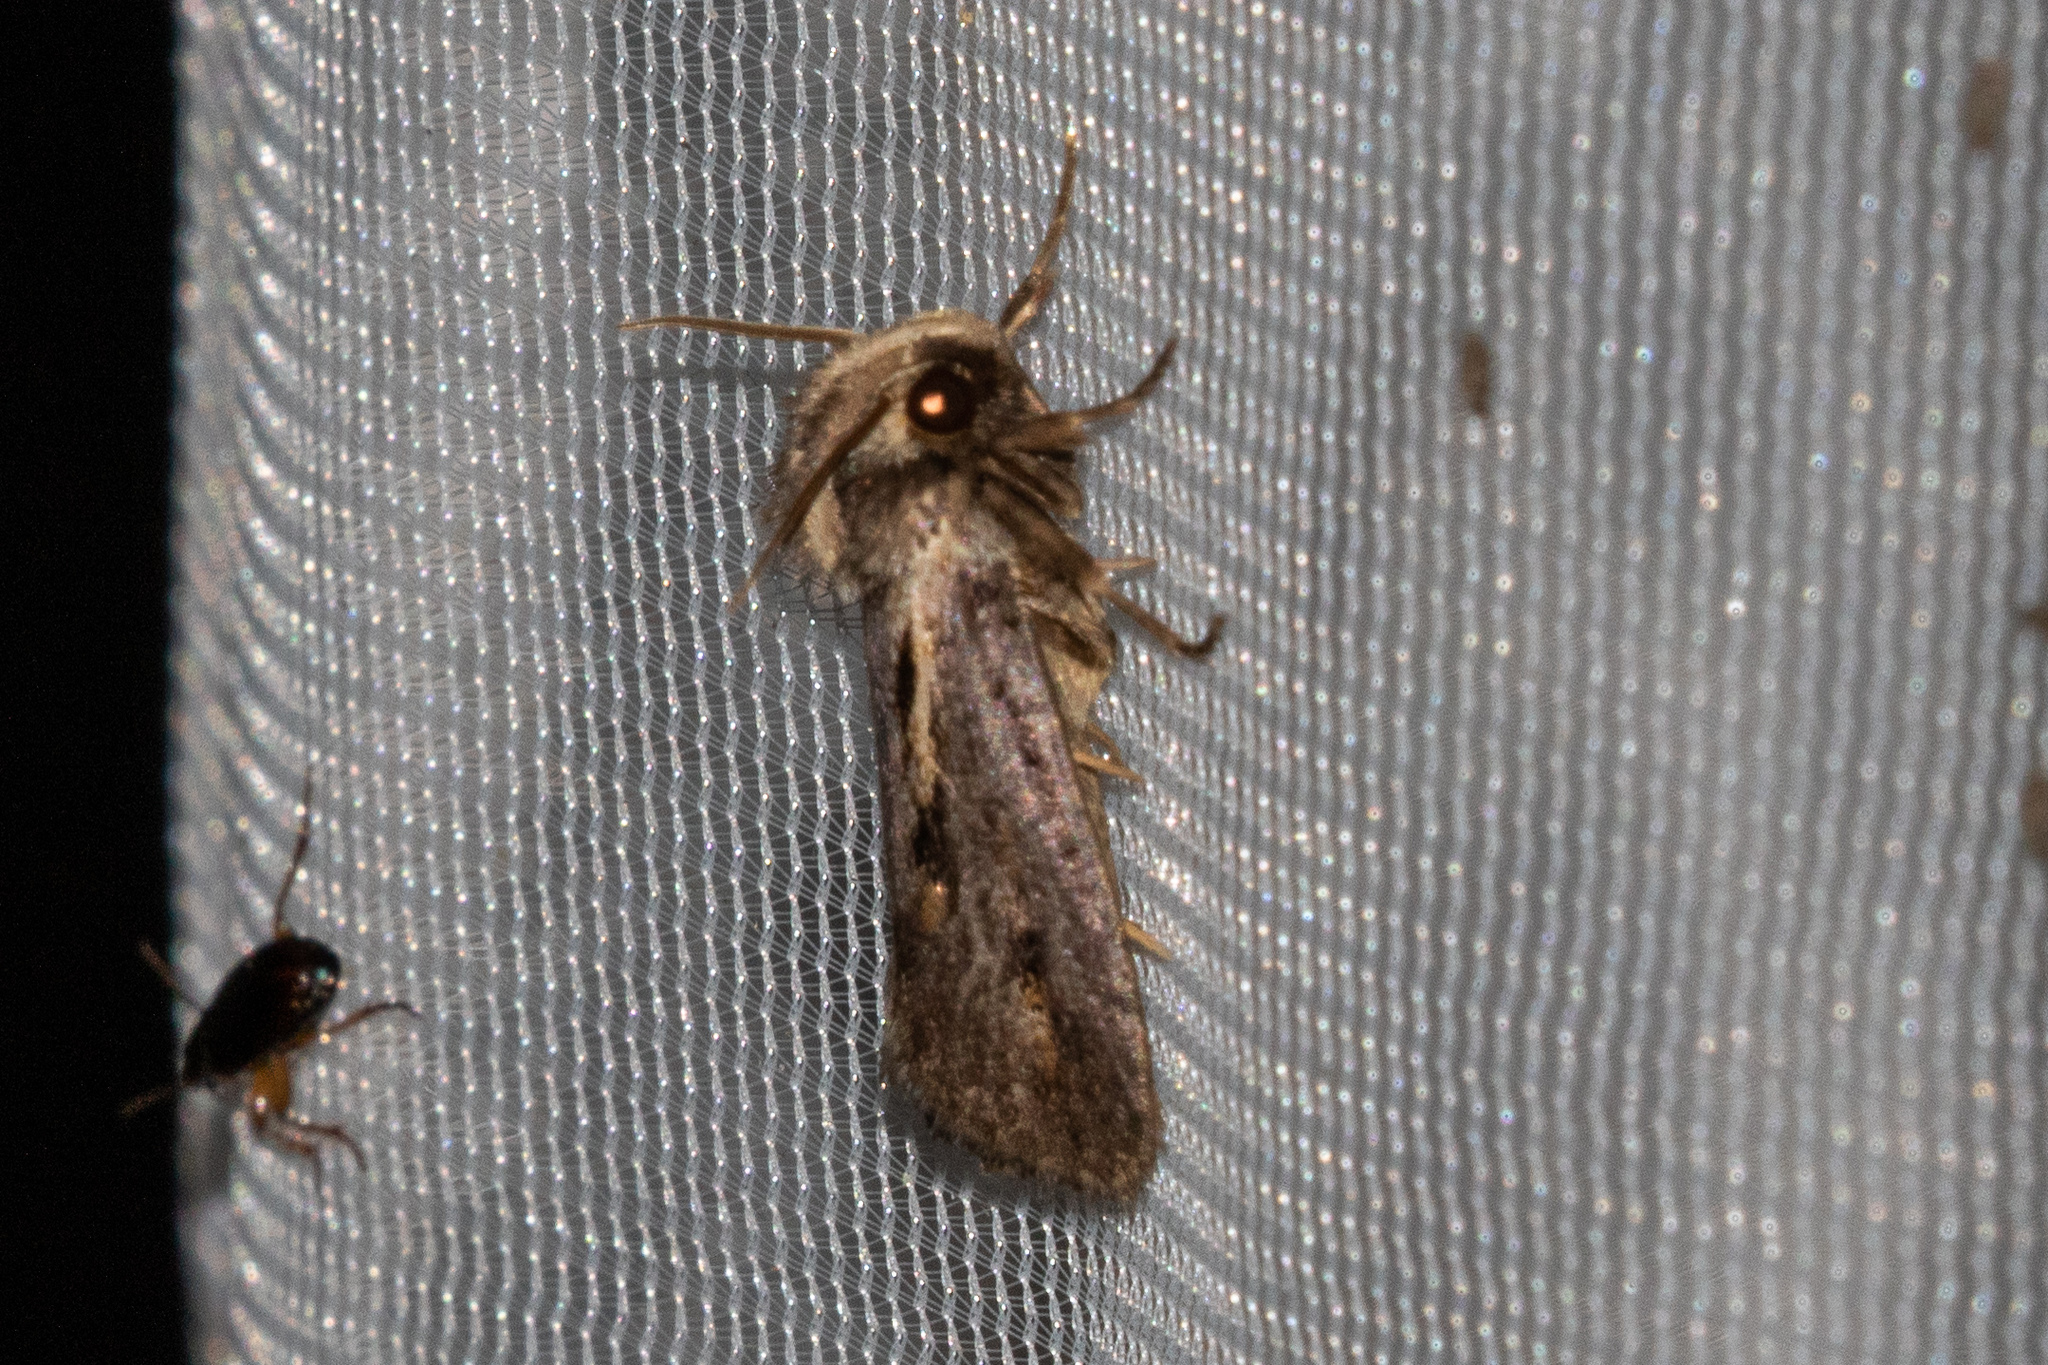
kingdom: Animalia
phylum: Arthropoda
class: Insecta
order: Lepidoptera
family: Tineidae
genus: Acrolophus
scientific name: Acrolophus popeanella
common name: Clemens' grass tubeworm moth
